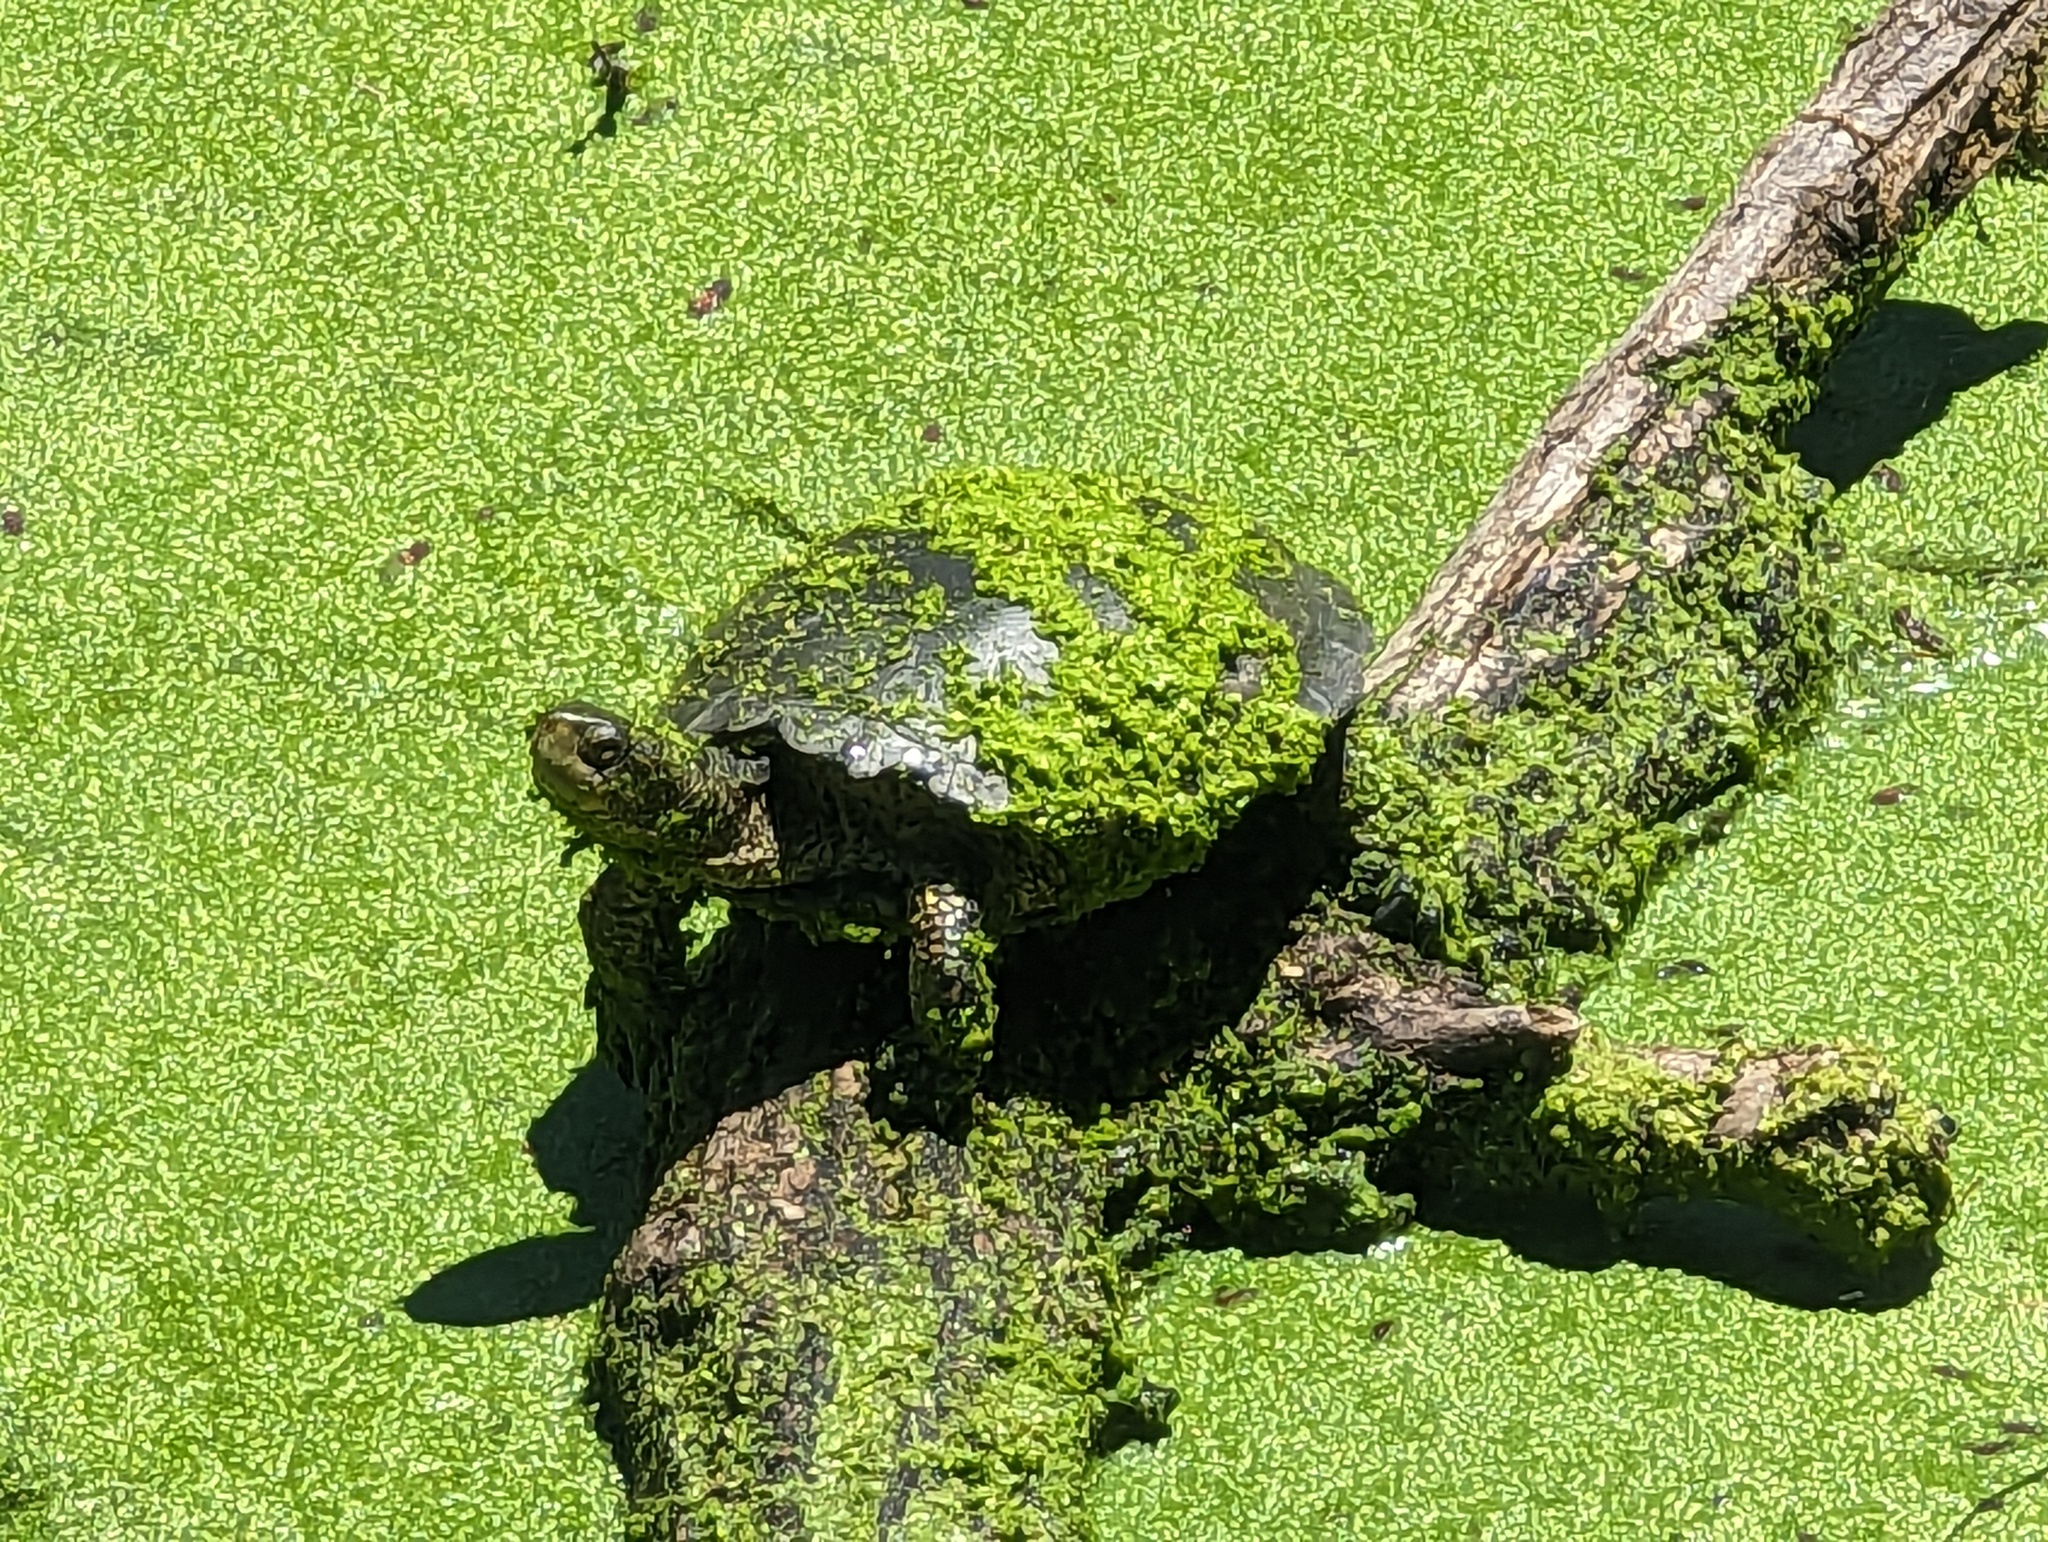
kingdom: Animalia
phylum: Chordata
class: Testudines
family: Emydidae
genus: Actinemys
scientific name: Actinemys marmorata
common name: Western pond turtle
